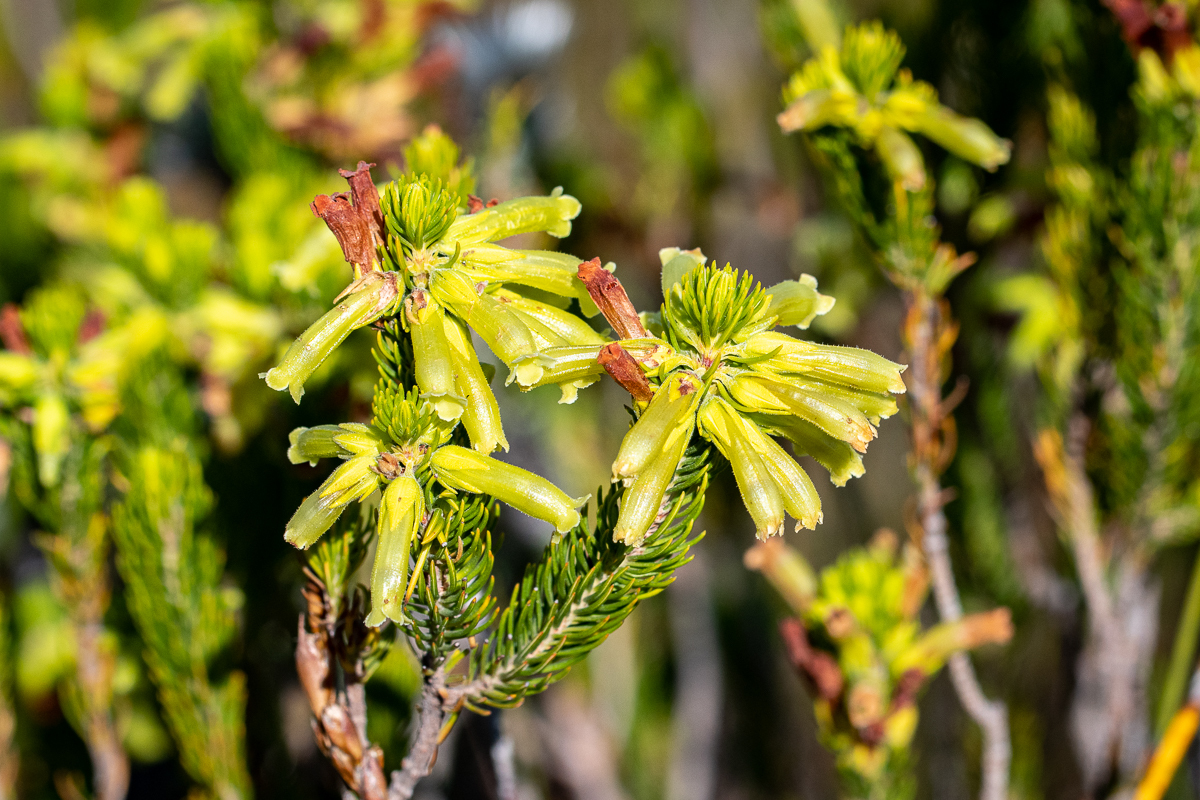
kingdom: Plantae
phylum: Tracheophyta
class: Magnoliopsida
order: Ericales
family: Ericaceae
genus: Erica
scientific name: Erica viscaria
